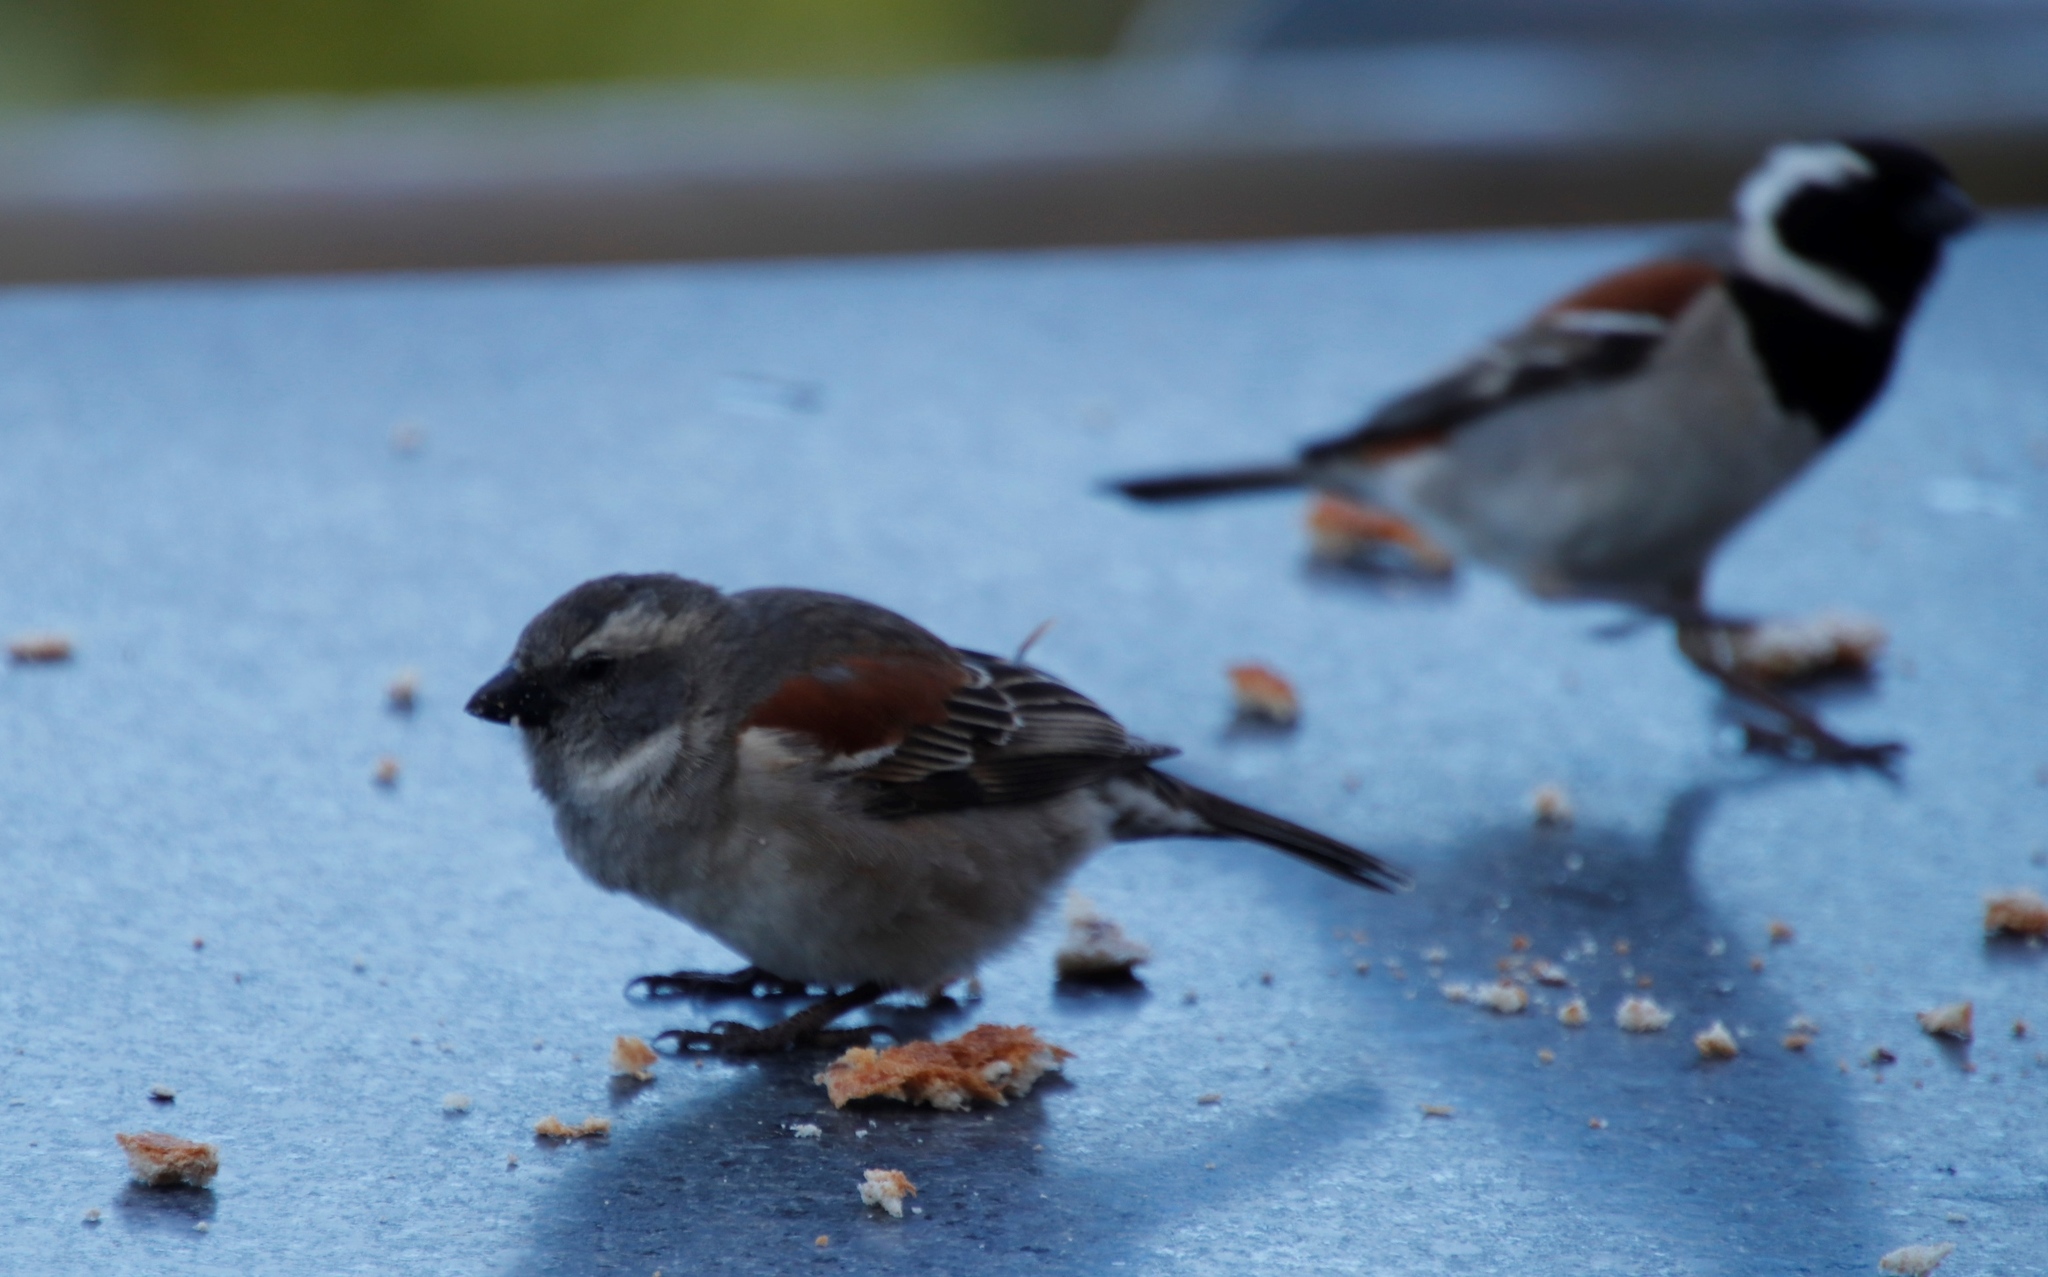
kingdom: Animalia
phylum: Chordata
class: Aves
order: Passeriformes
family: Passeridae
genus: Passer
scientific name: Passer melanurus
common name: Cape sparrow
